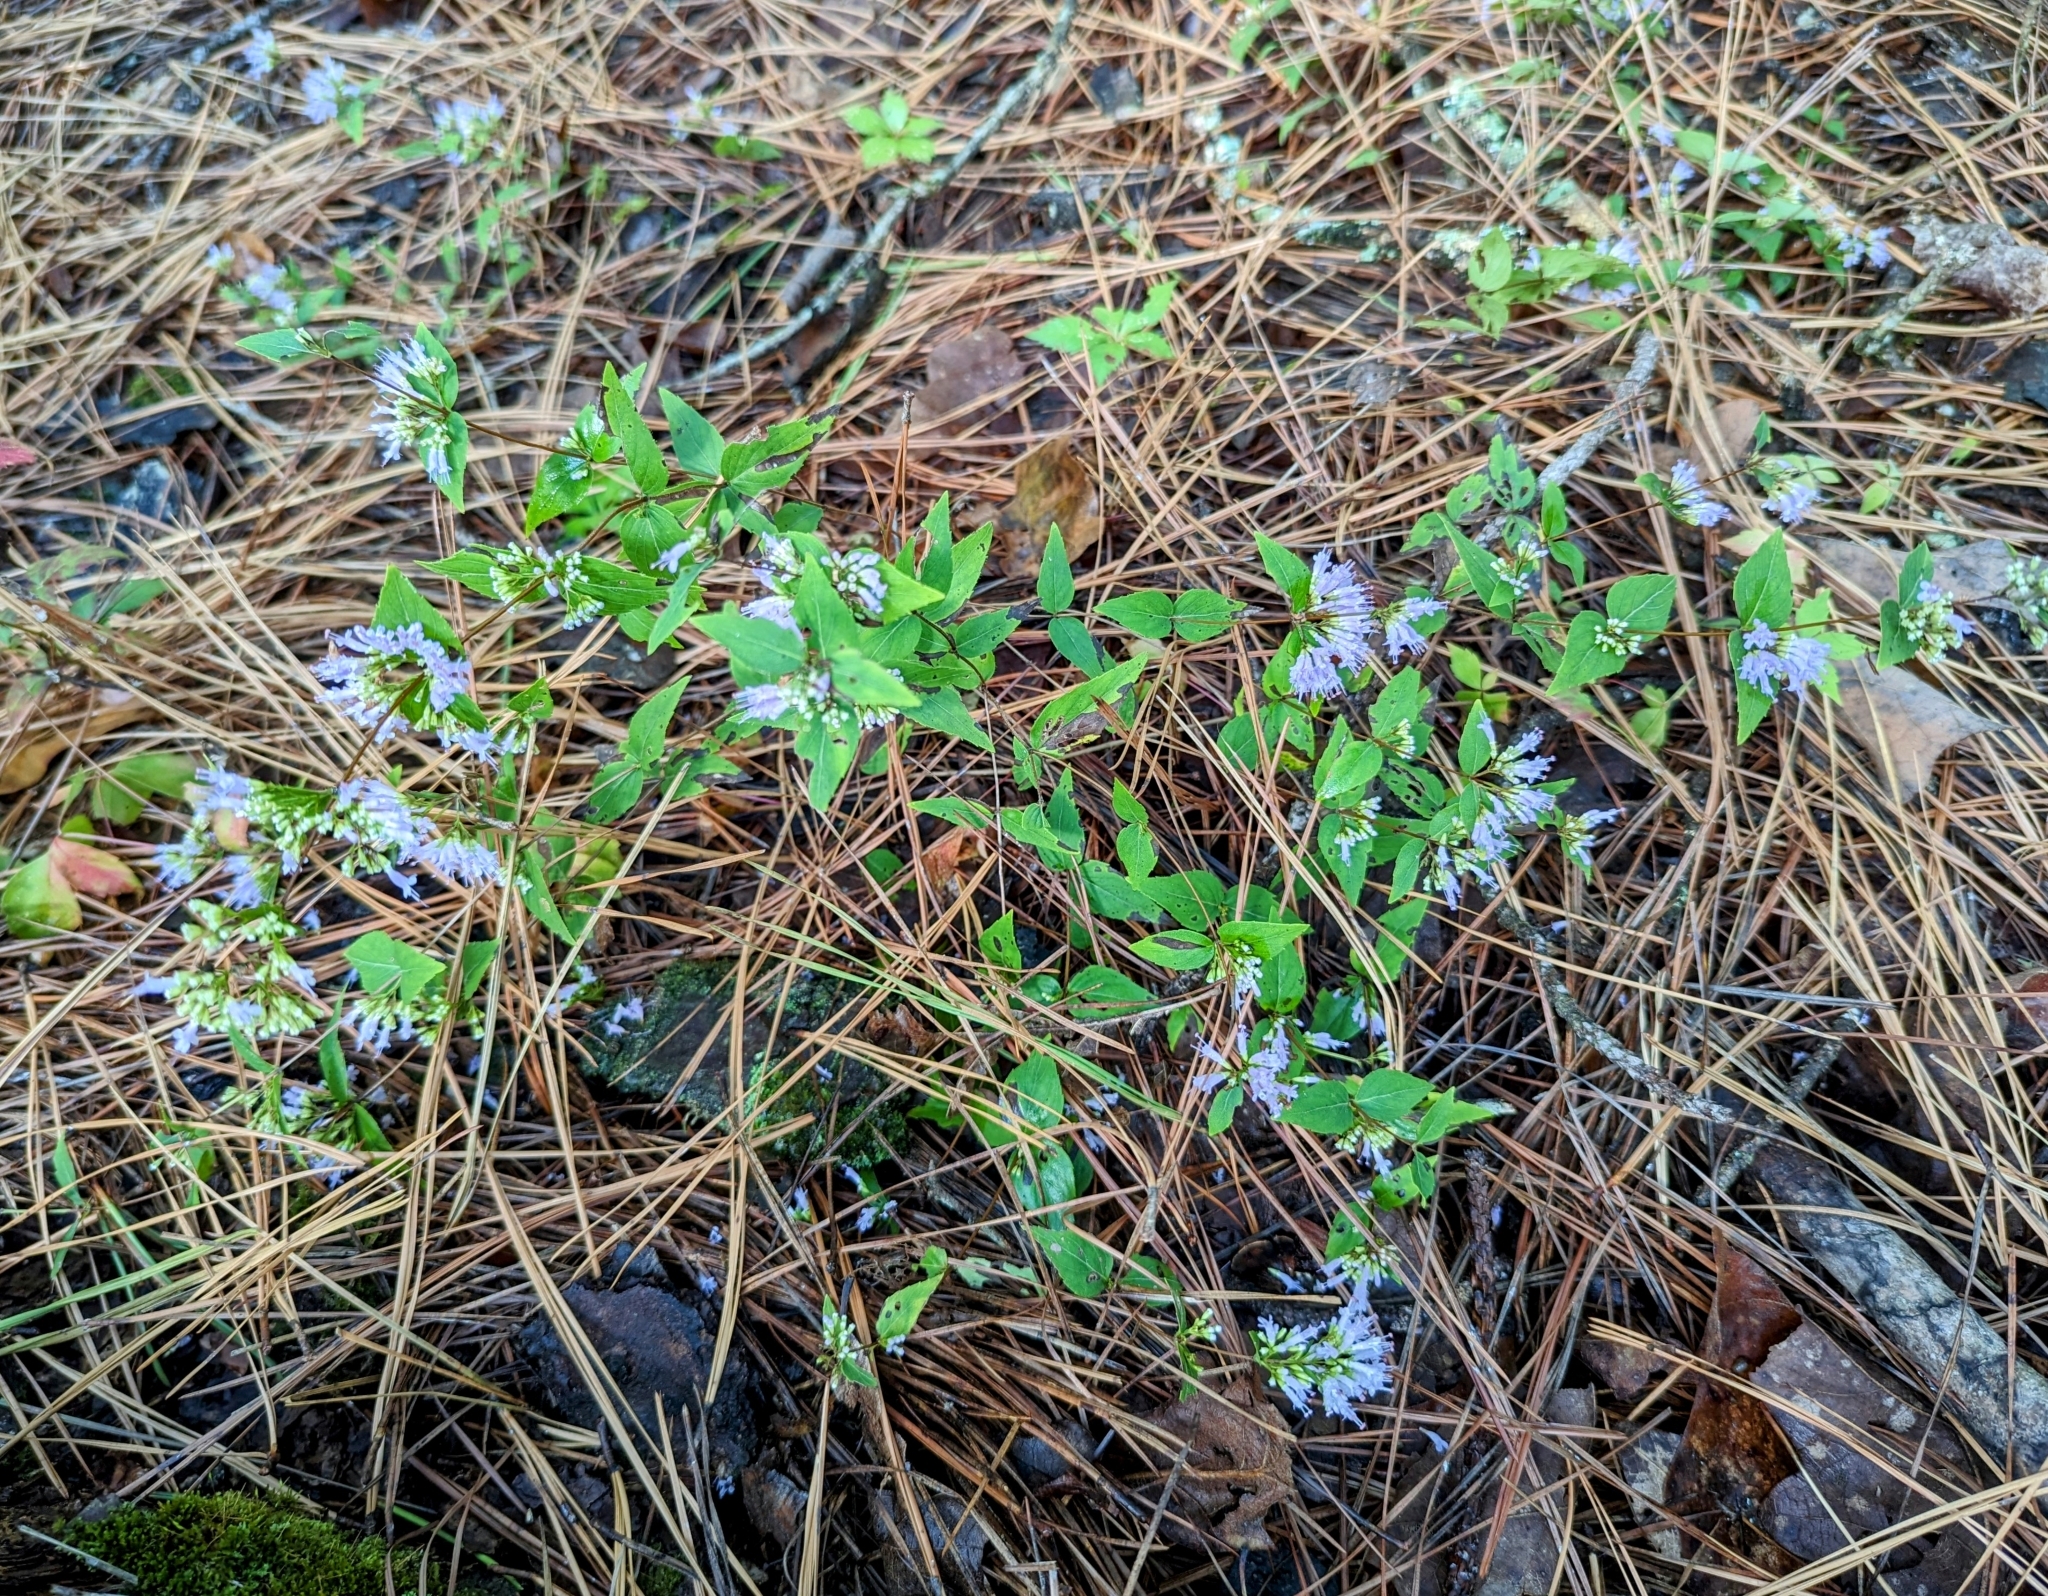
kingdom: Plantae
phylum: Tracheophyta
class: Magnoliopsida
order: Lamiales
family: Lamiaceae
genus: Cunila
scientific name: Cunila origanoides
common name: American dittany
